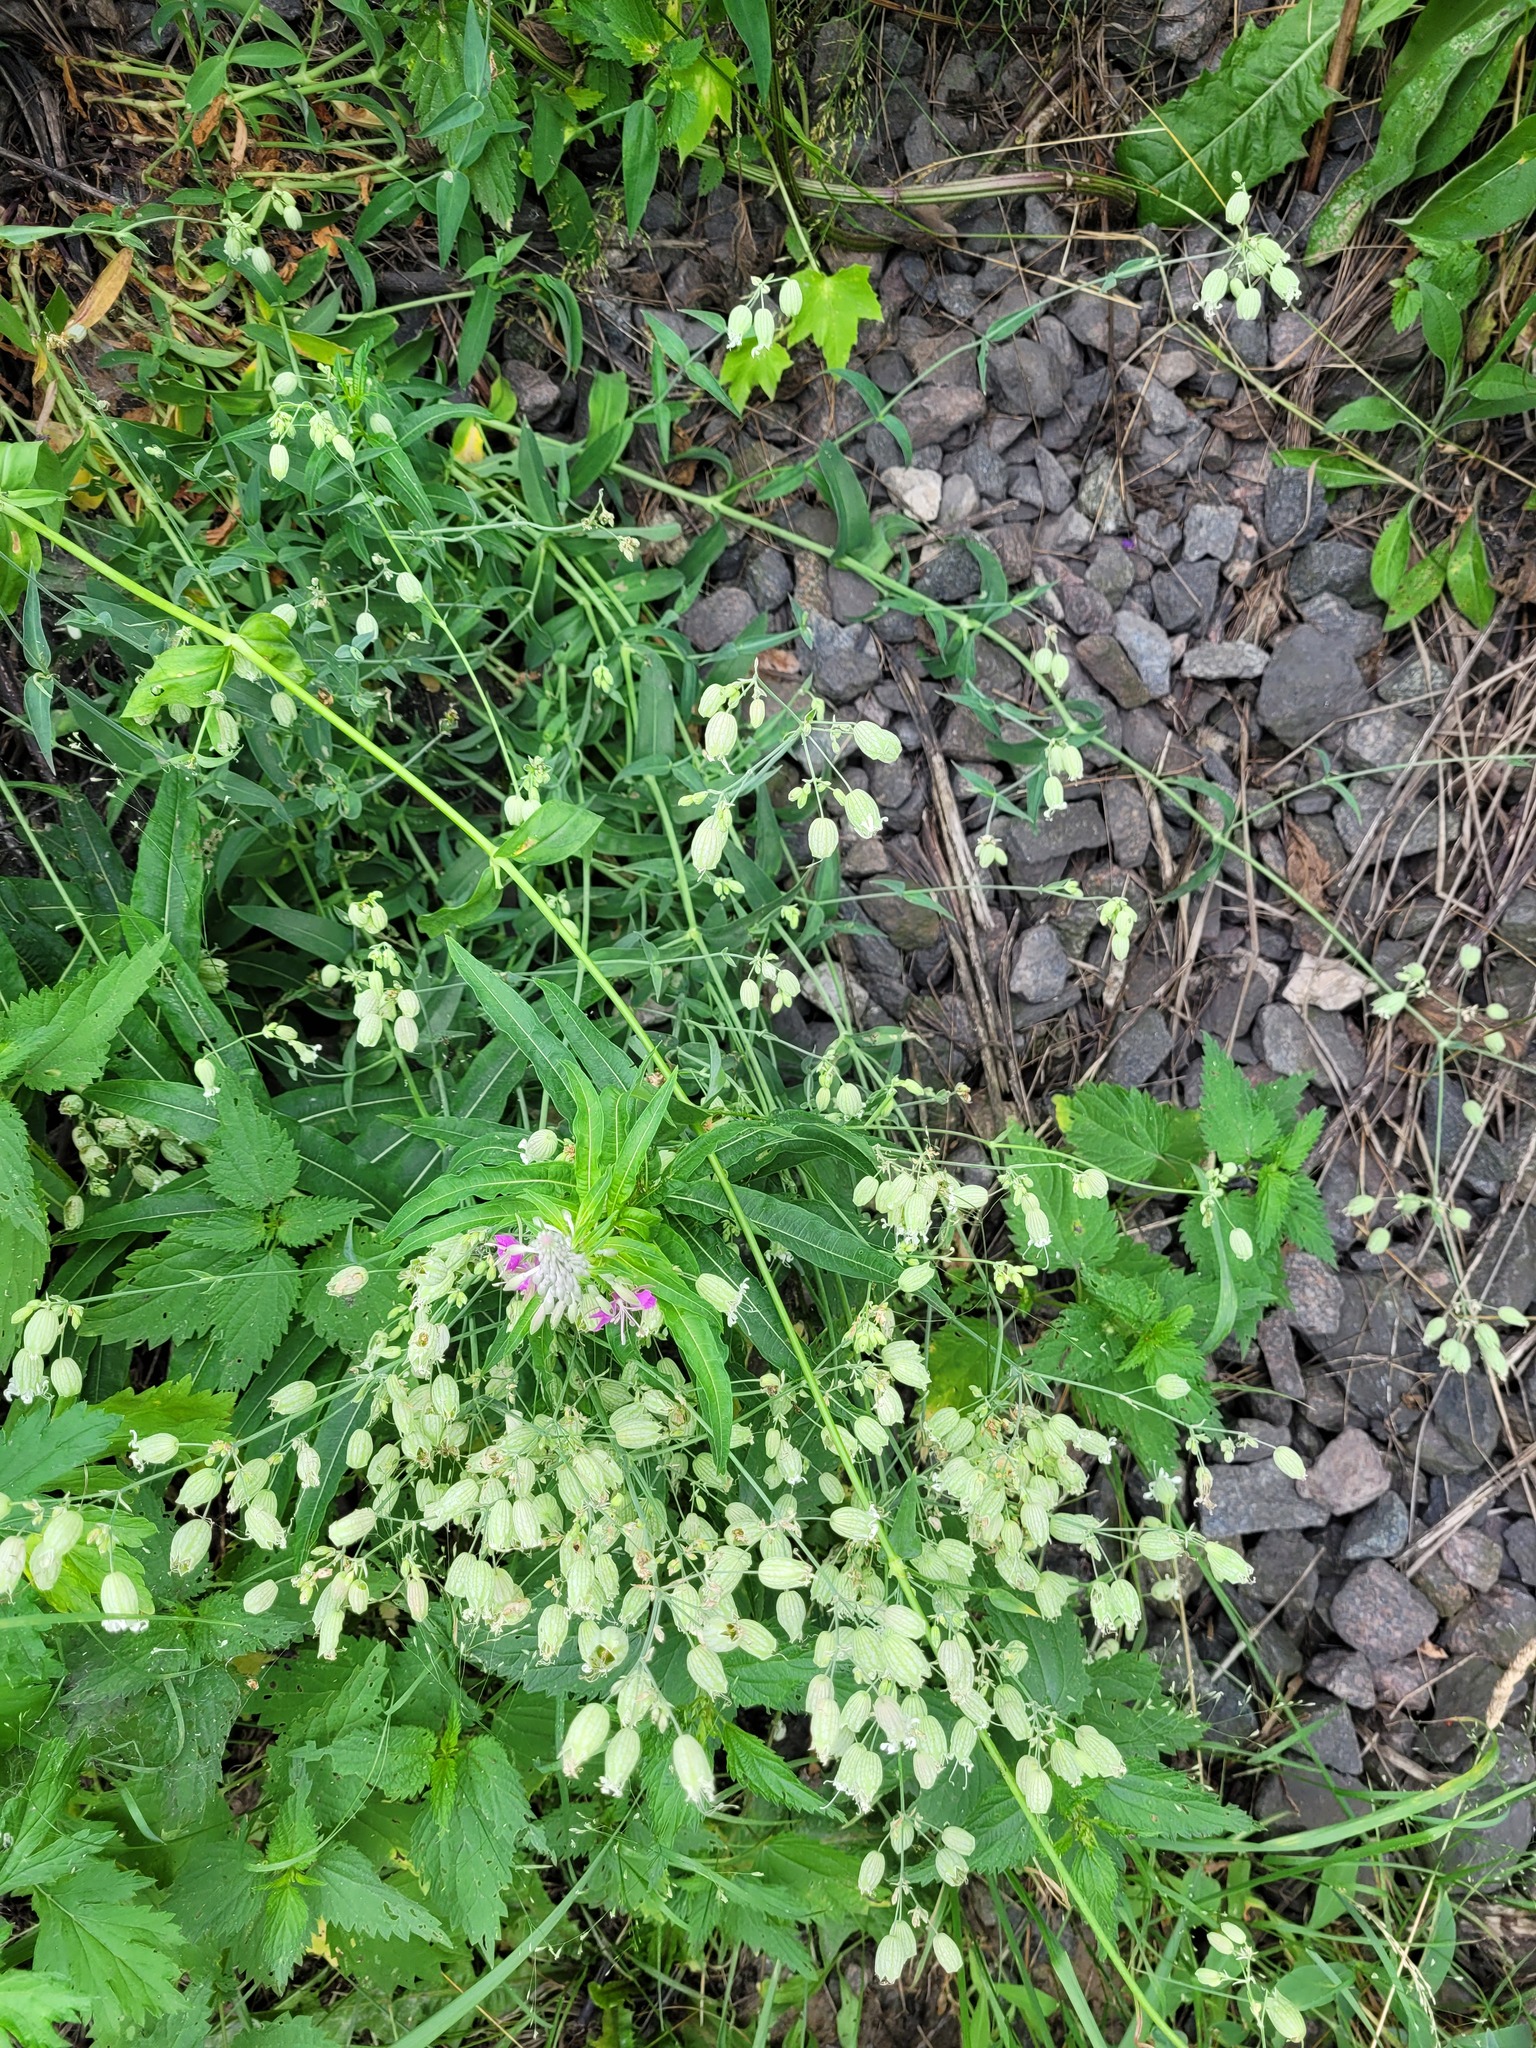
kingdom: Plantae
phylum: Tracheophyta
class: Magnoliopsida
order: Caryophyllales
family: Caryophyllaceae
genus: Silene
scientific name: Silene vulgaris
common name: Bladder campion
